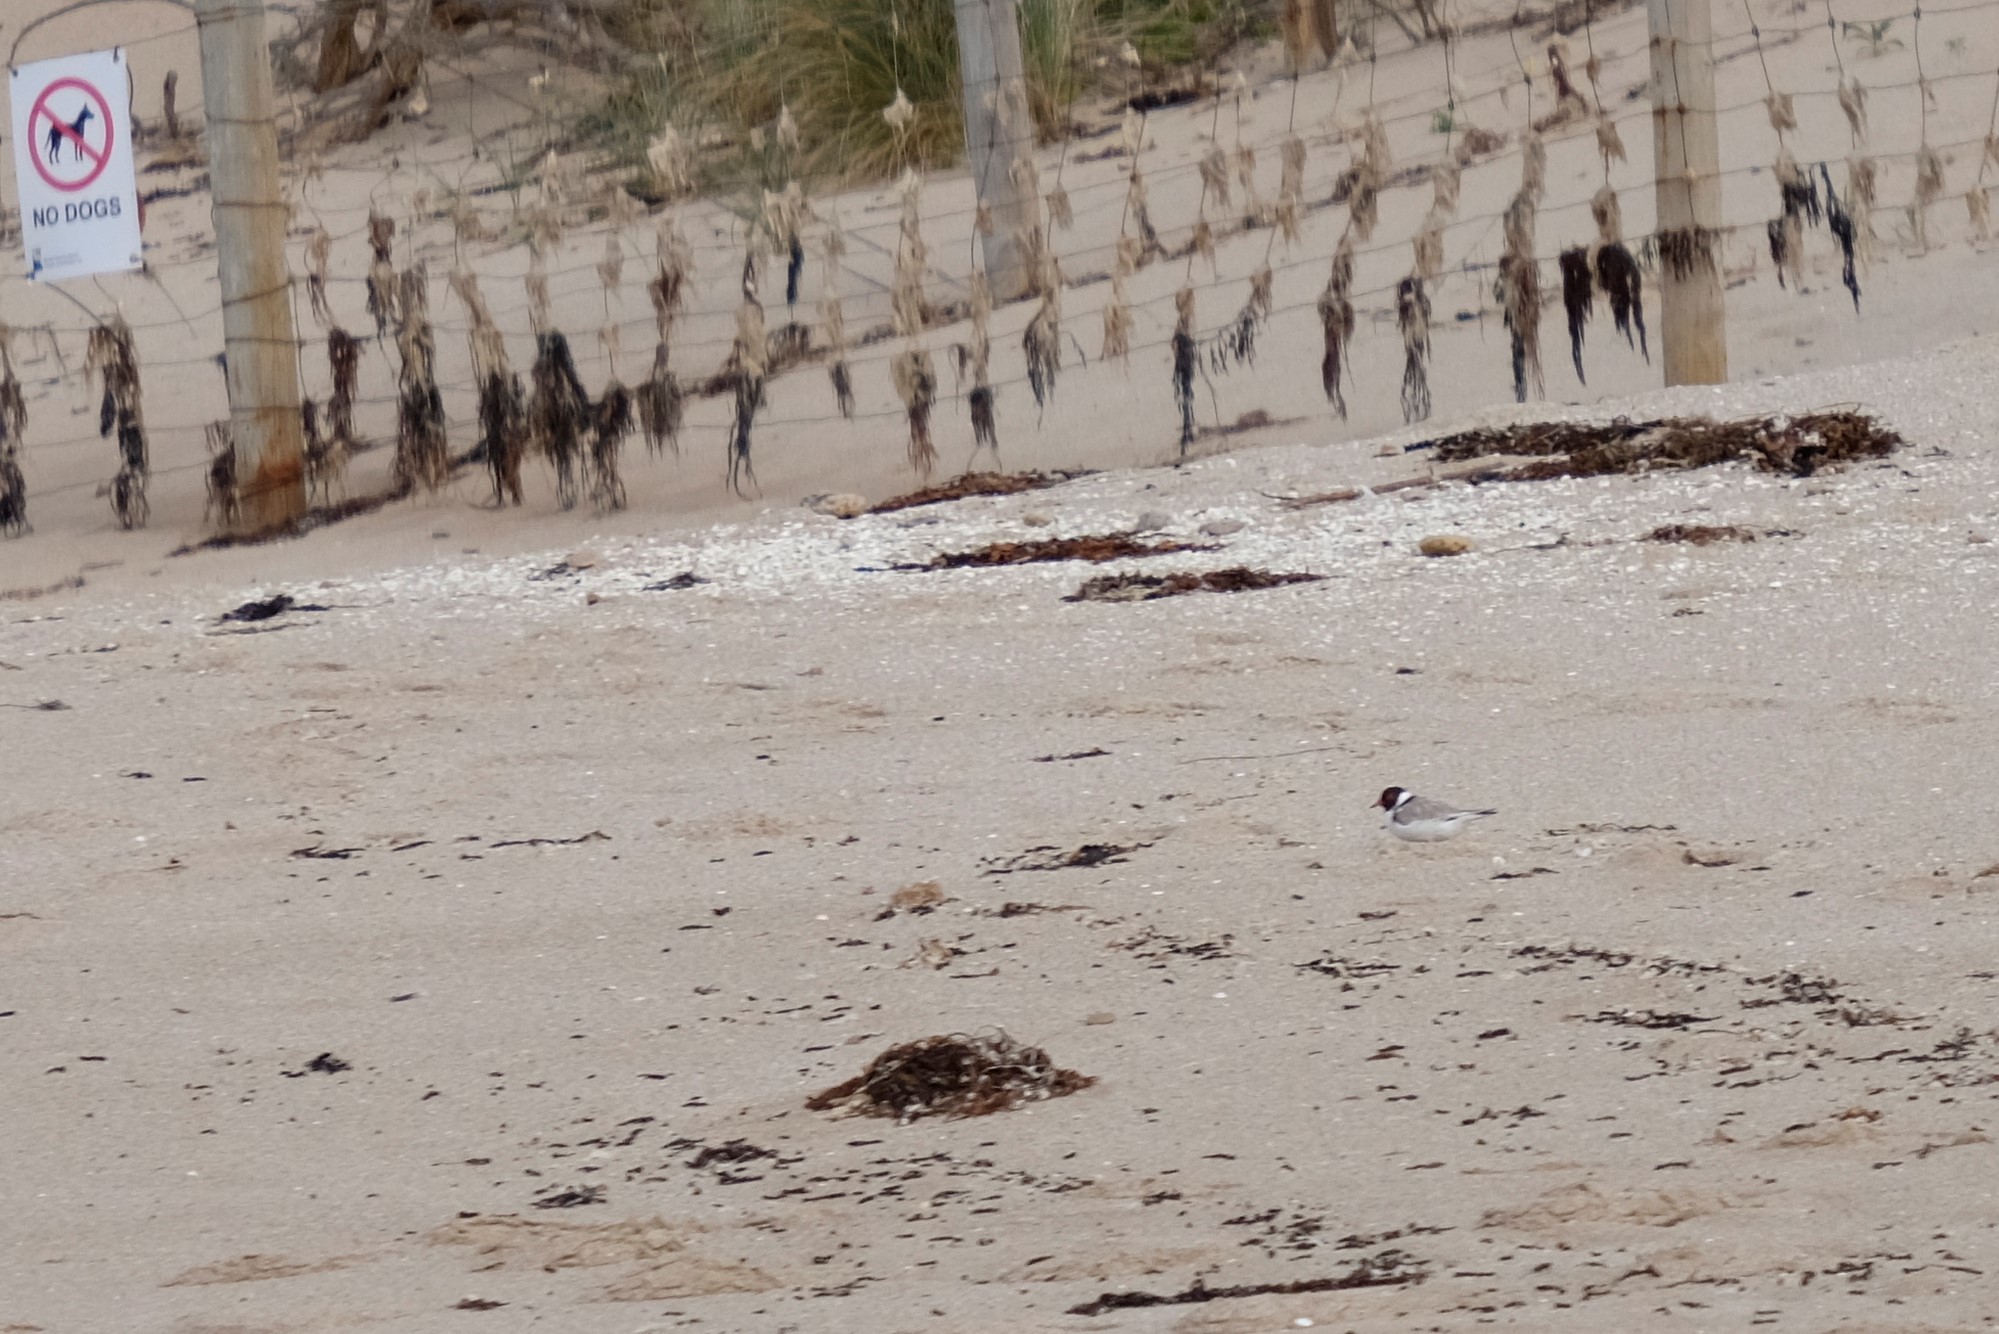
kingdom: Animalia
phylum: Chordata
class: Aves
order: Charadriiformes
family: Charadriidae
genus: Thinornis
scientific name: Thinornis cucullatus
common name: Hooded dotterel
